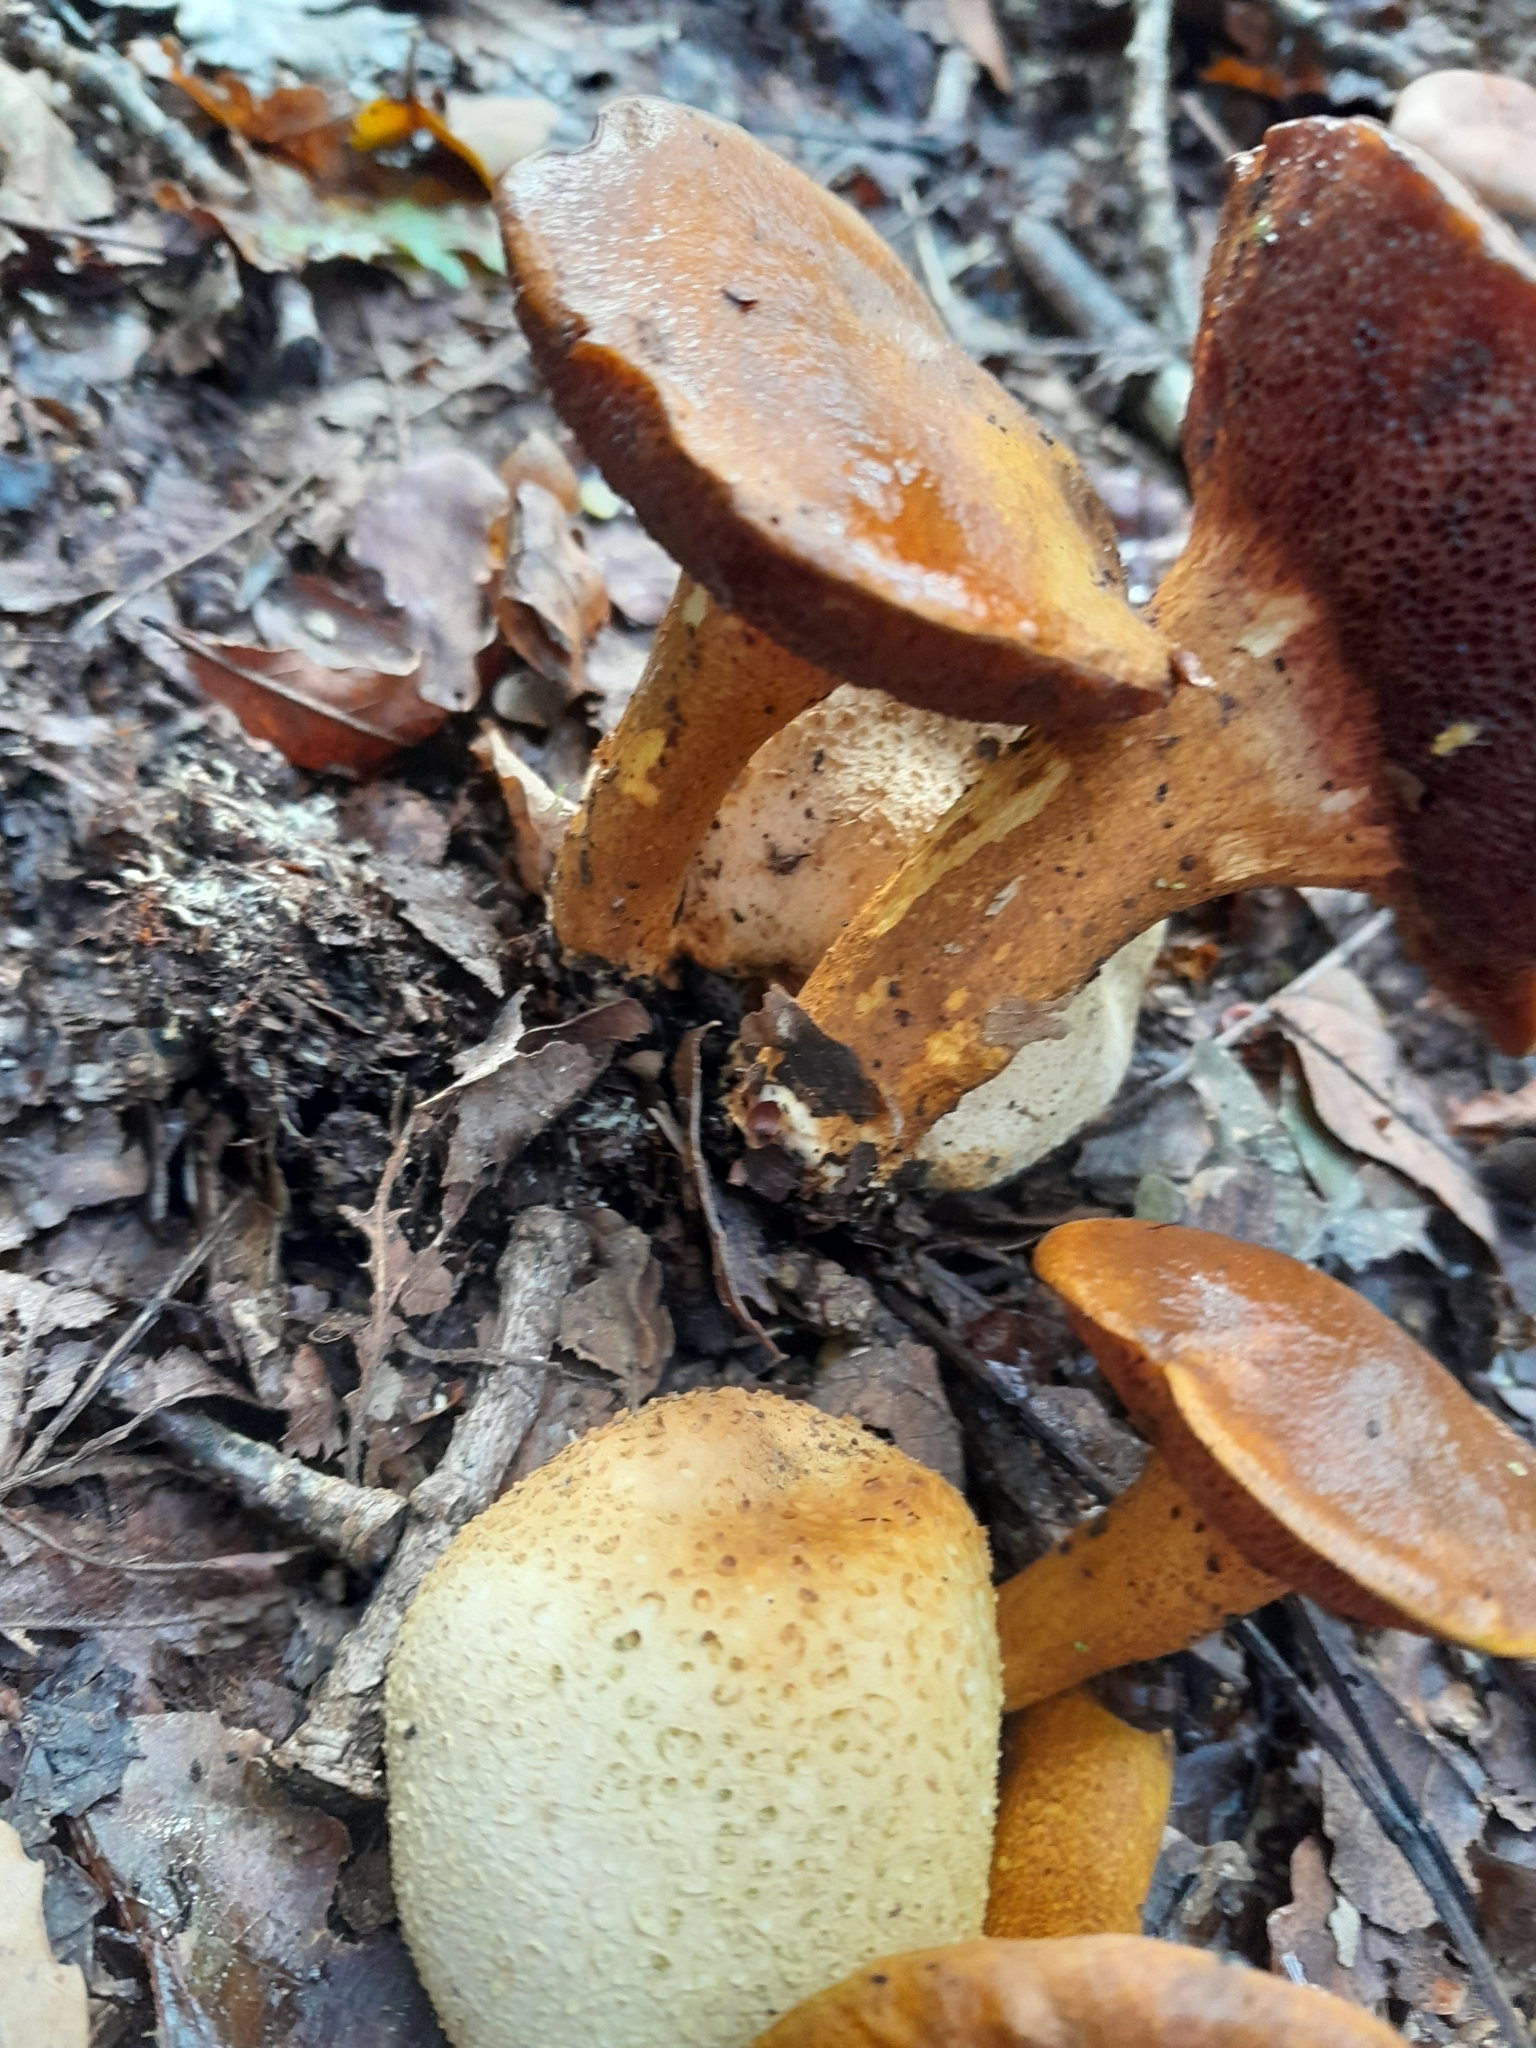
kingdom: Fungi
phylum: Basidiomycota
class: Agaricomycetes
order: Boletales
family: Boletaceae
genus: Pseudoboletus
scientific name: Pseudoboletus parasiticus
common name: Parasitic bolete
